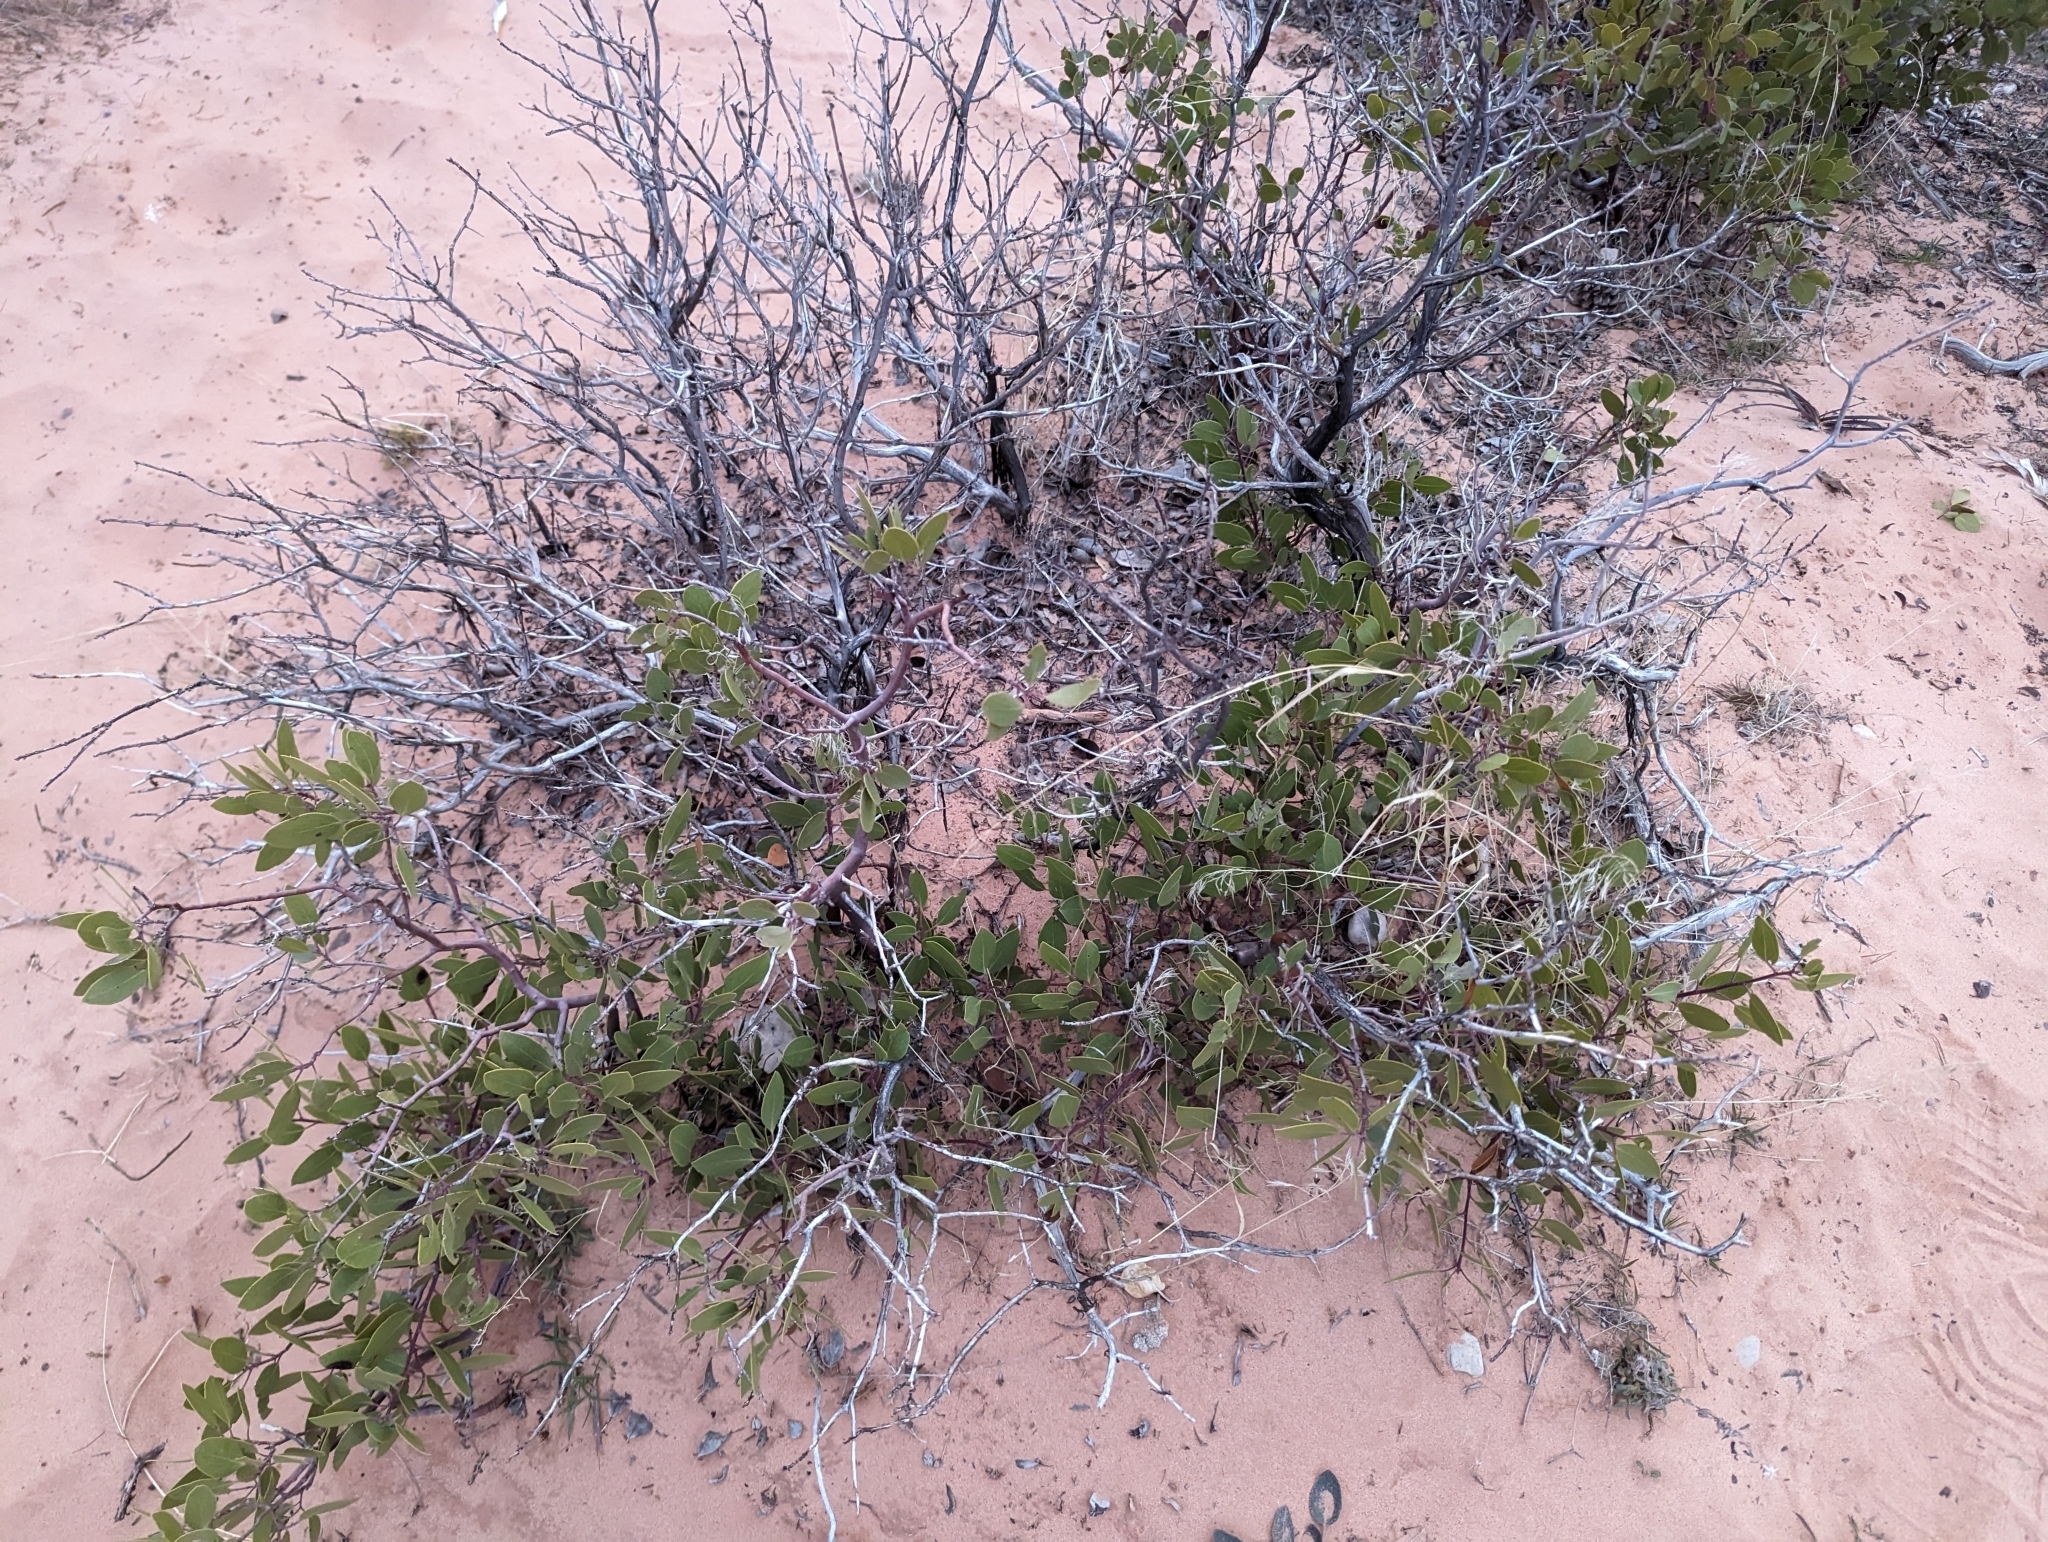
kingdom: Plantae
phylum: Tracheophyta
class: Magnoliopsida
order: Ericales
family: Ericaceae
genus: Arctostaphylos
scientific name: Arctostaphylos patula
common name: Green-leaf manzanita
